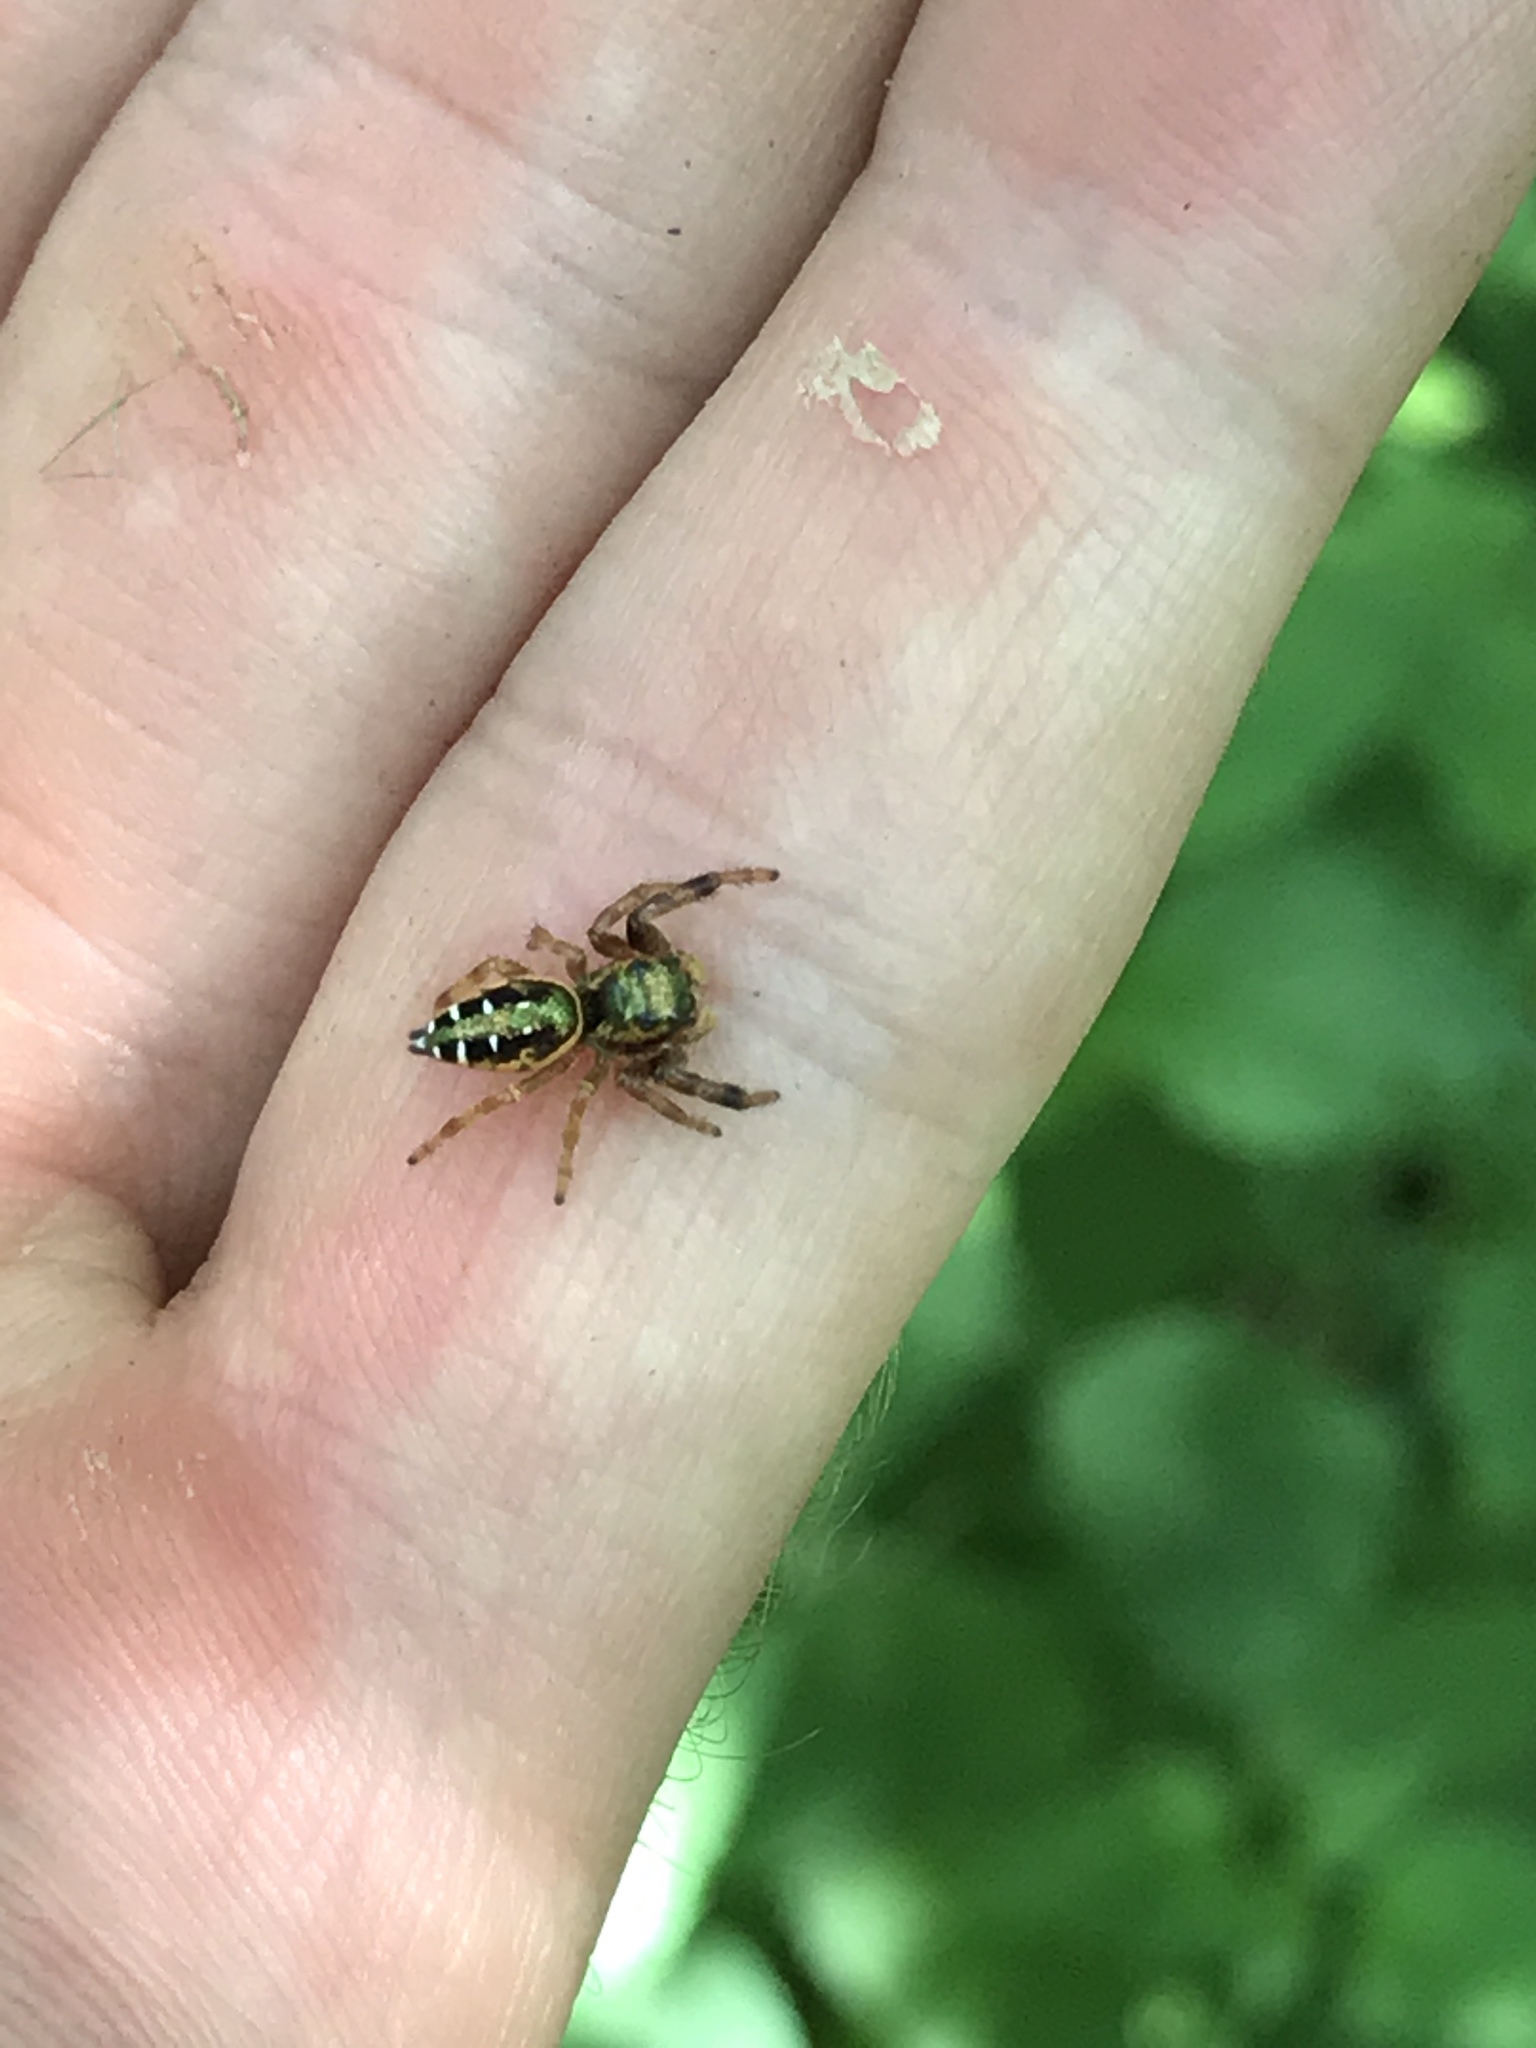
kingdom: Animalia
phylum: Arthropoda
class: Arachnida
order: Araneae
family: Salticidae
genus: Paraphidippus
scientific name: Paraphidippus aurantius
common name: Jumping spiders
